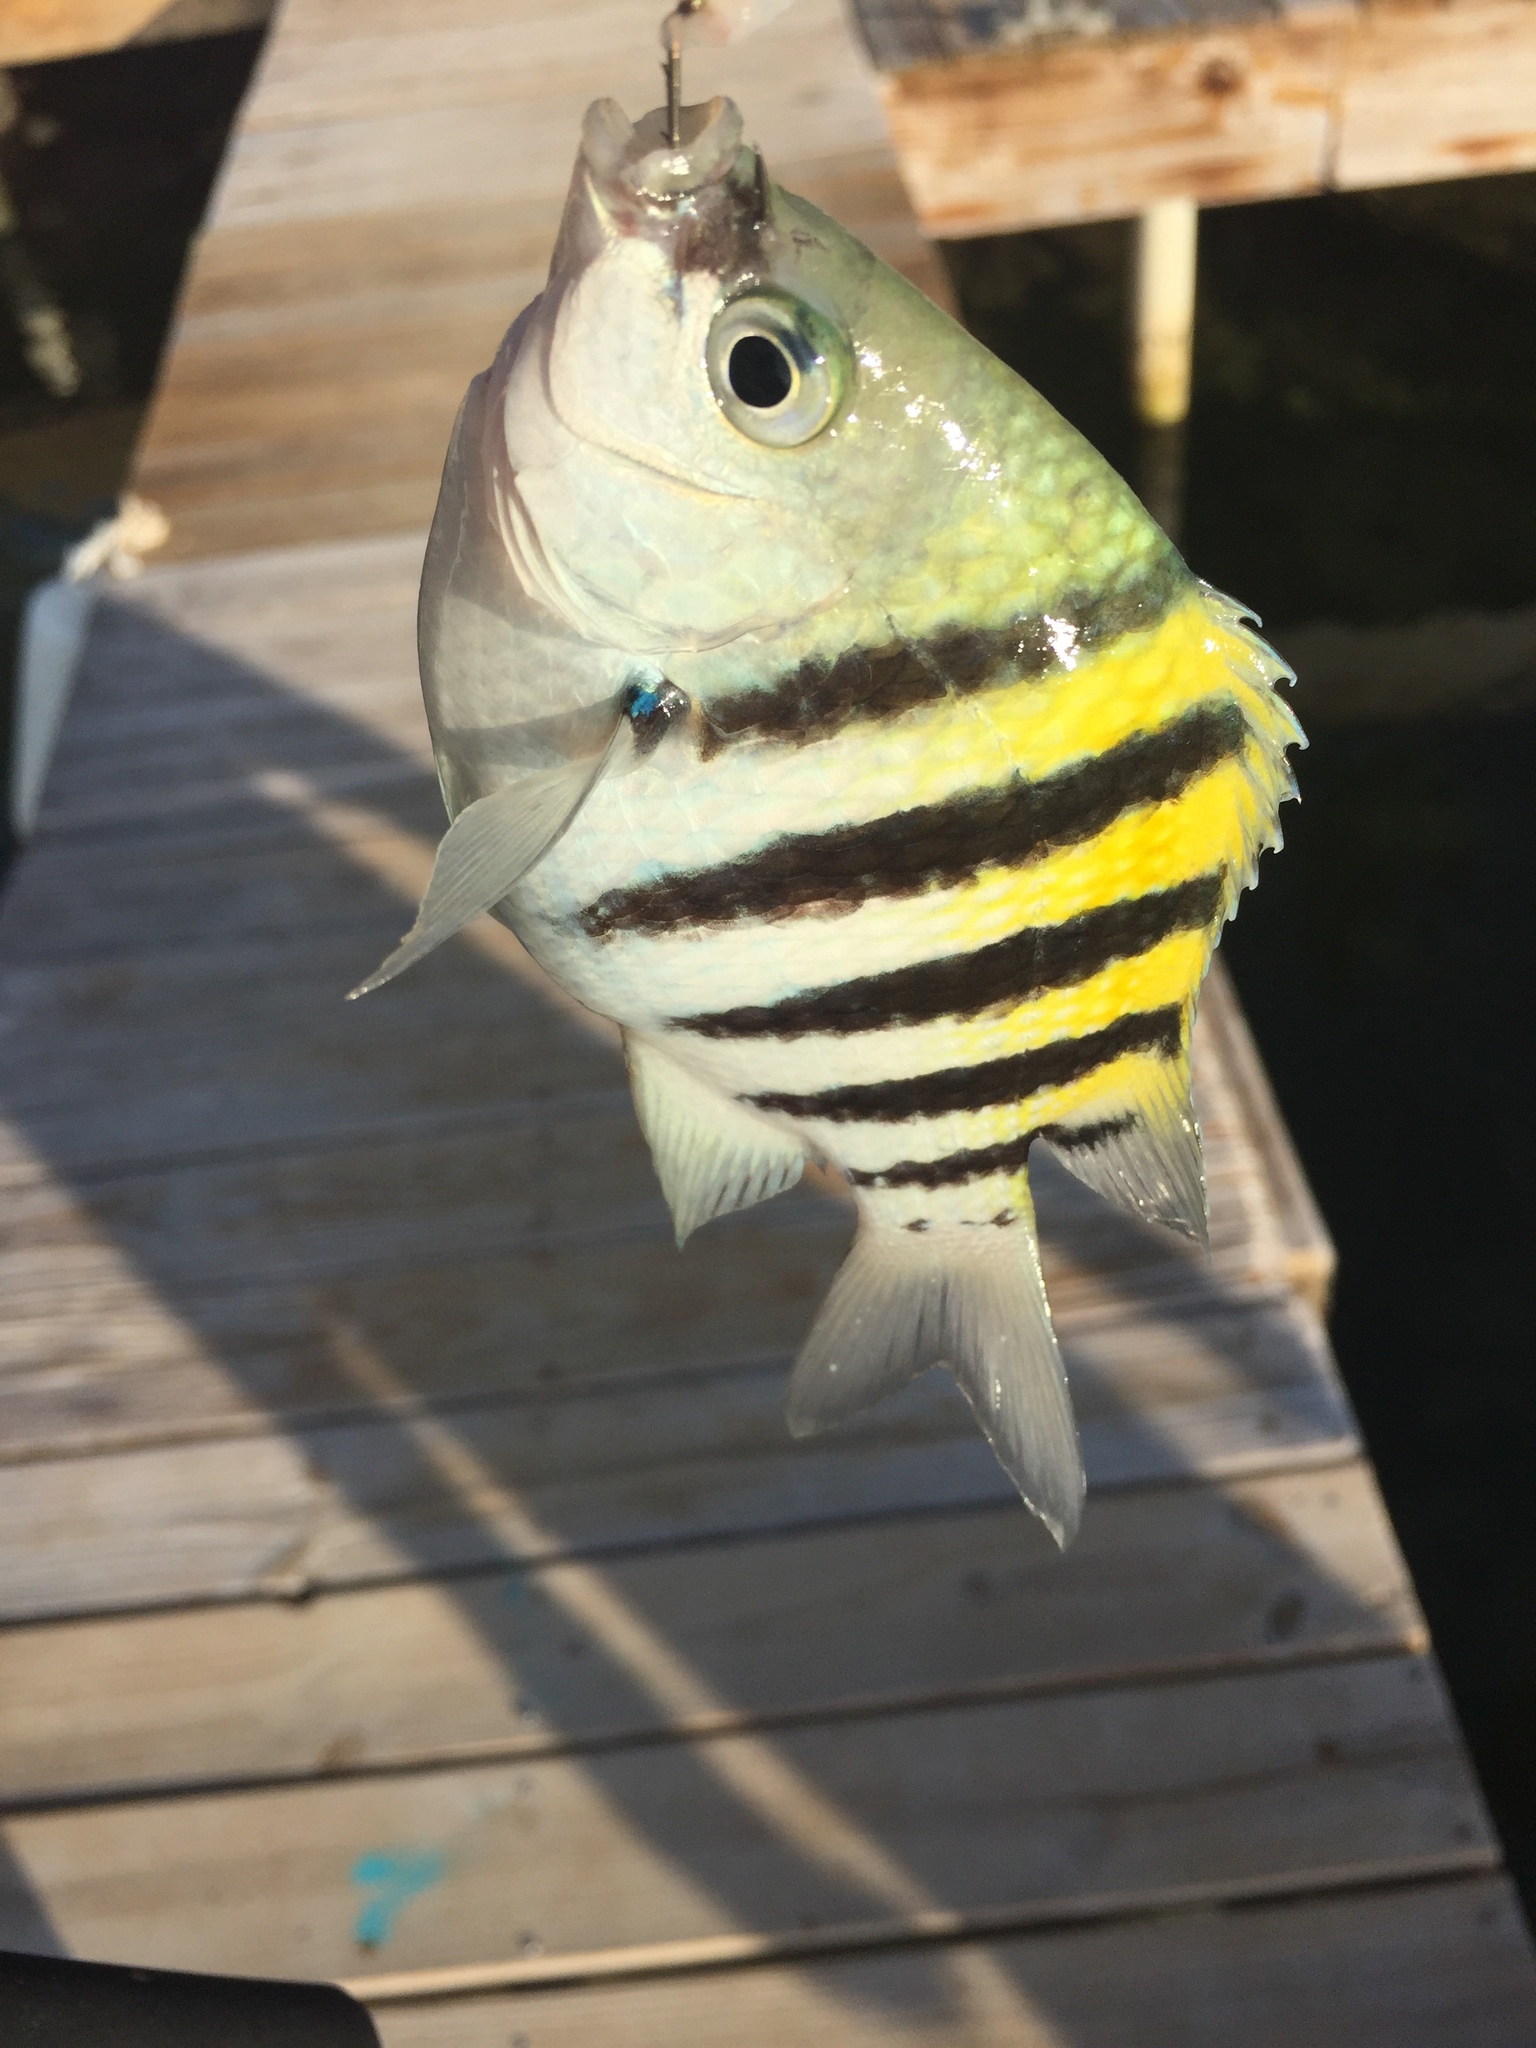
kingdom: Animalia
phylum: Chordata
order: Perciformes
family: Pomacentridae
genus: Abudefduf
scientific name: Abudefduf saxatilis
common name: Sergeant major
